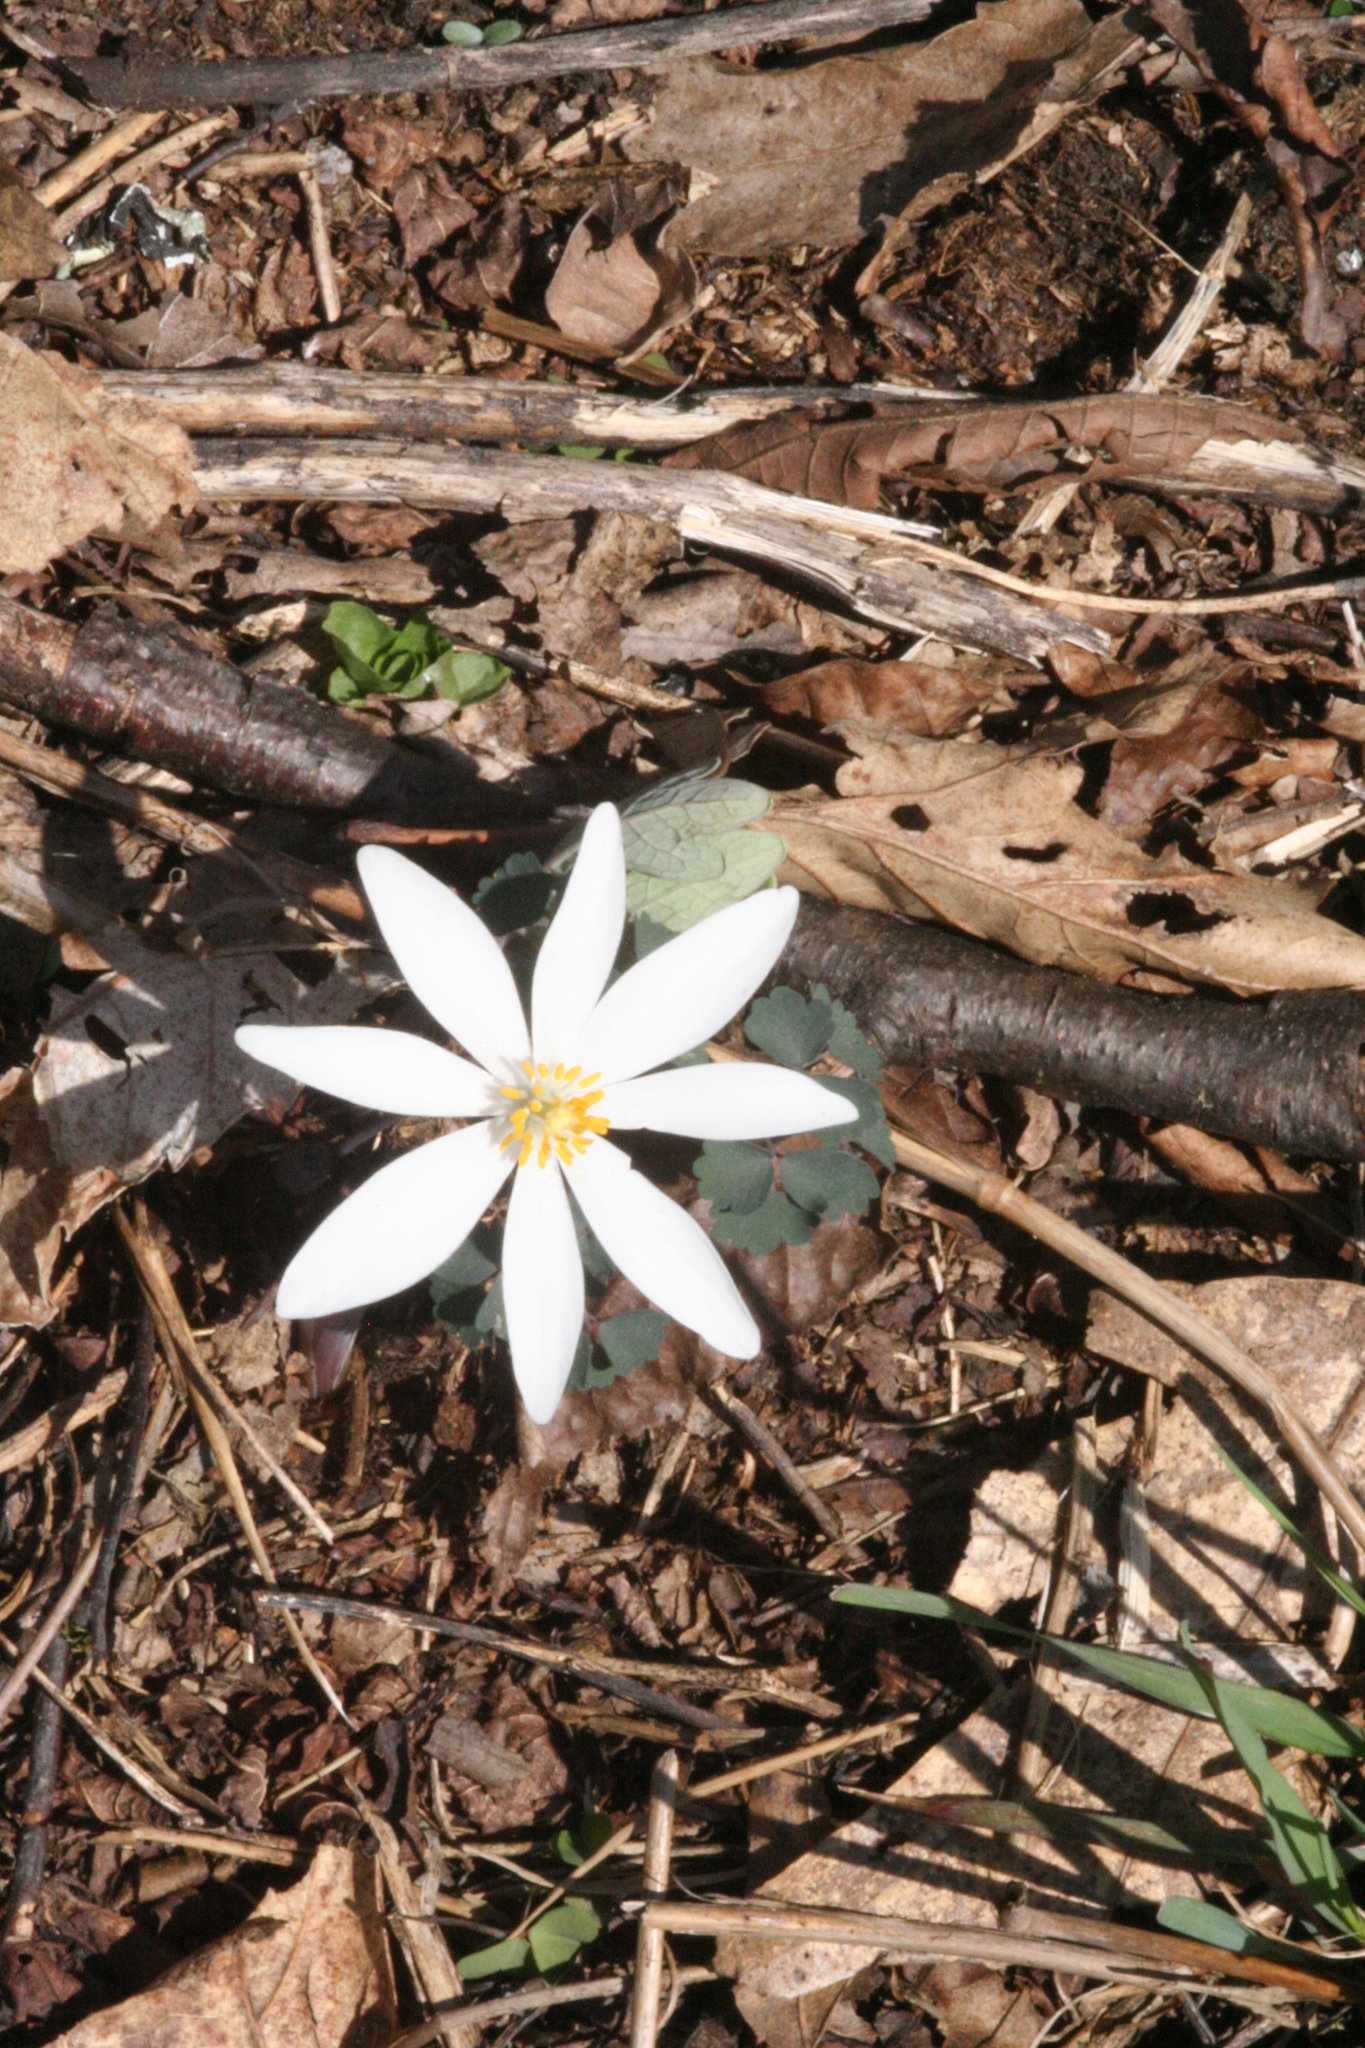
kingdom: Plantae
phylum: Tracheophyta
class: Magnoliopsida
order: Ranunculales
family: Papaveraceae
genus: Sanguinaria
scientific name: Sanguinaria canadensis
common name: Bloodroot
